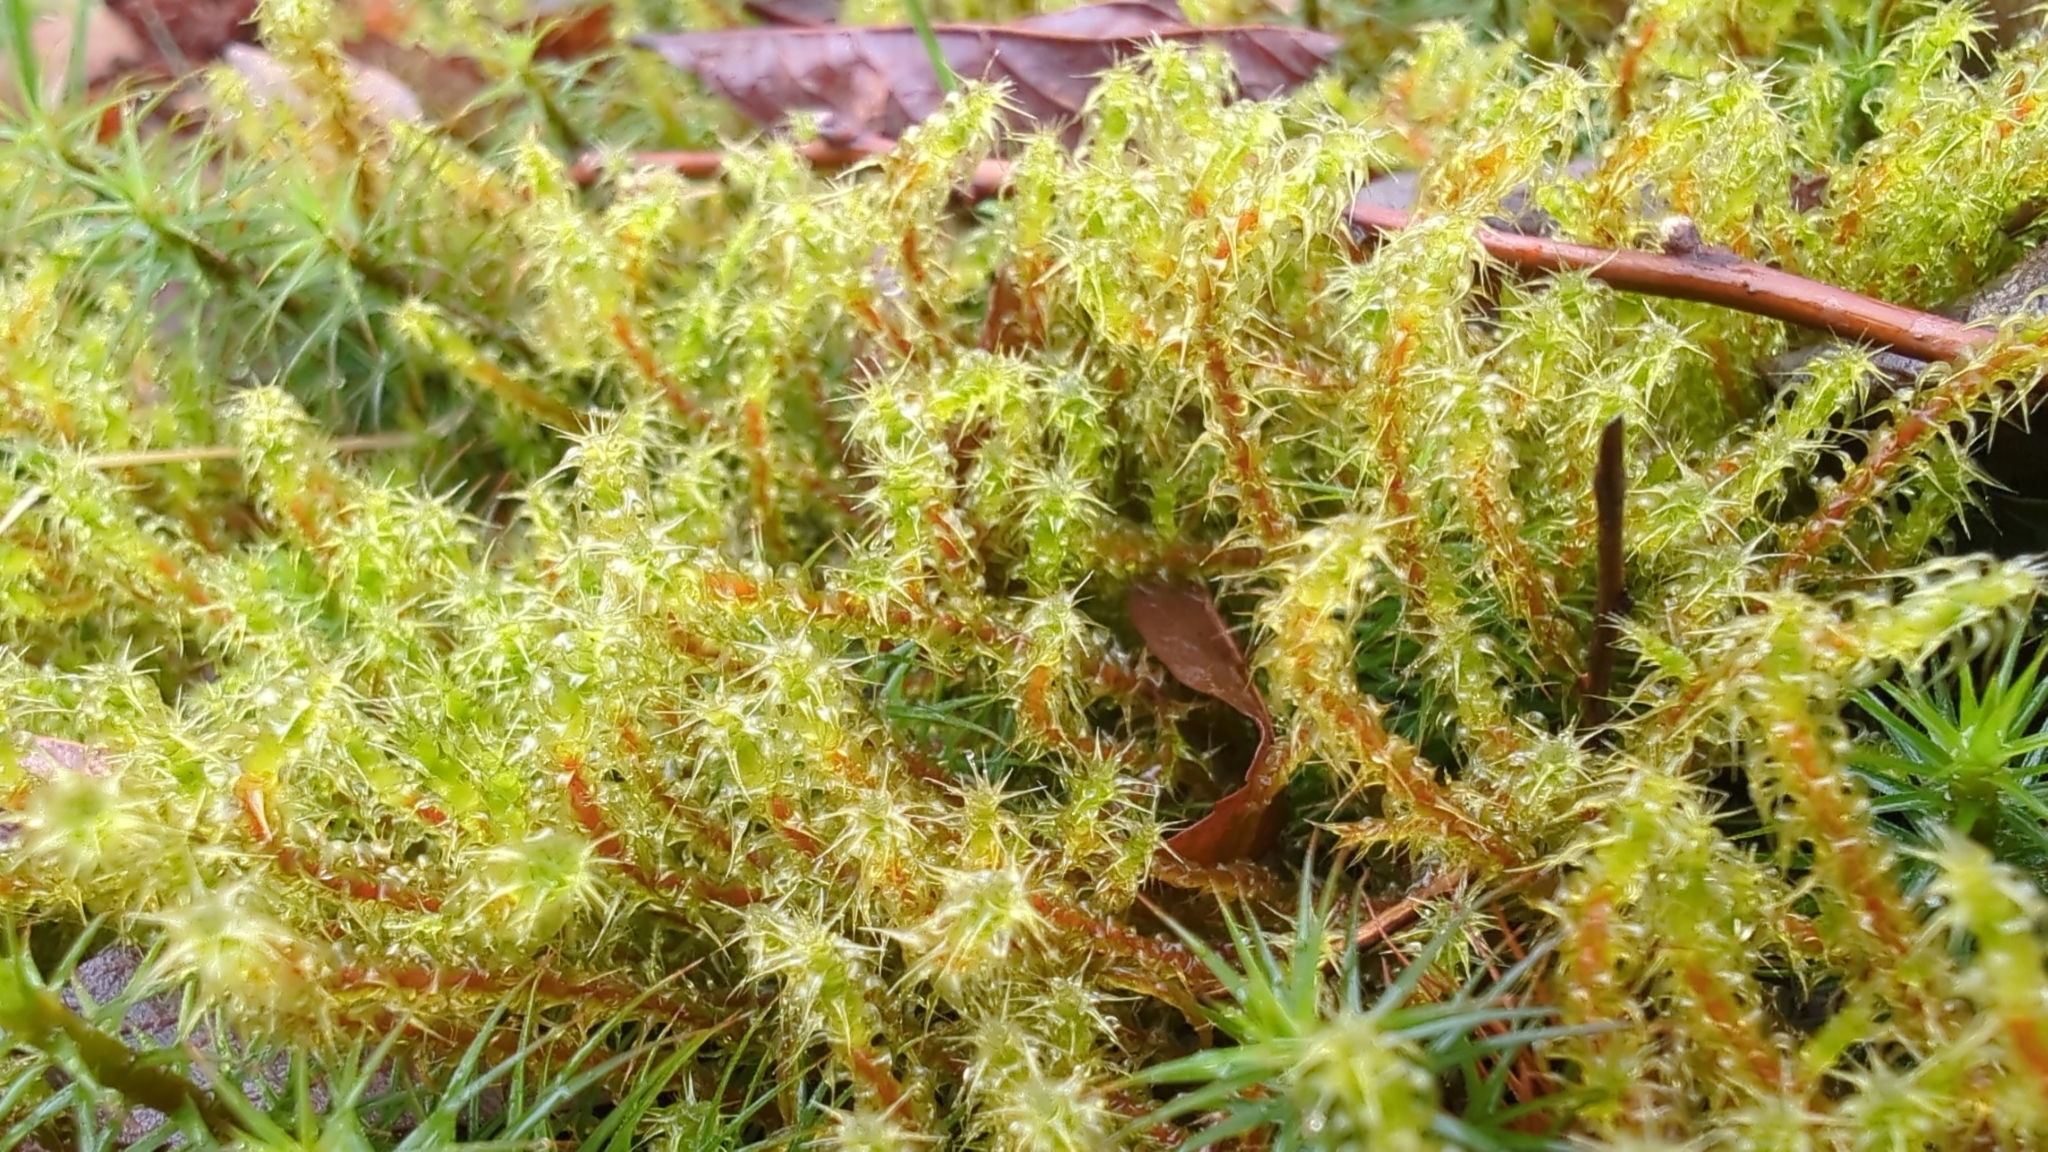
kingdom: Plantae
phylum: Bryophyta
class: Bryopsida
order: Hypnales
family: Hylocomiaceae
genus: Rhytidiadelphus
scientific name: Rhytidiadelphus squarrosus
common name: Springy turf-moss
